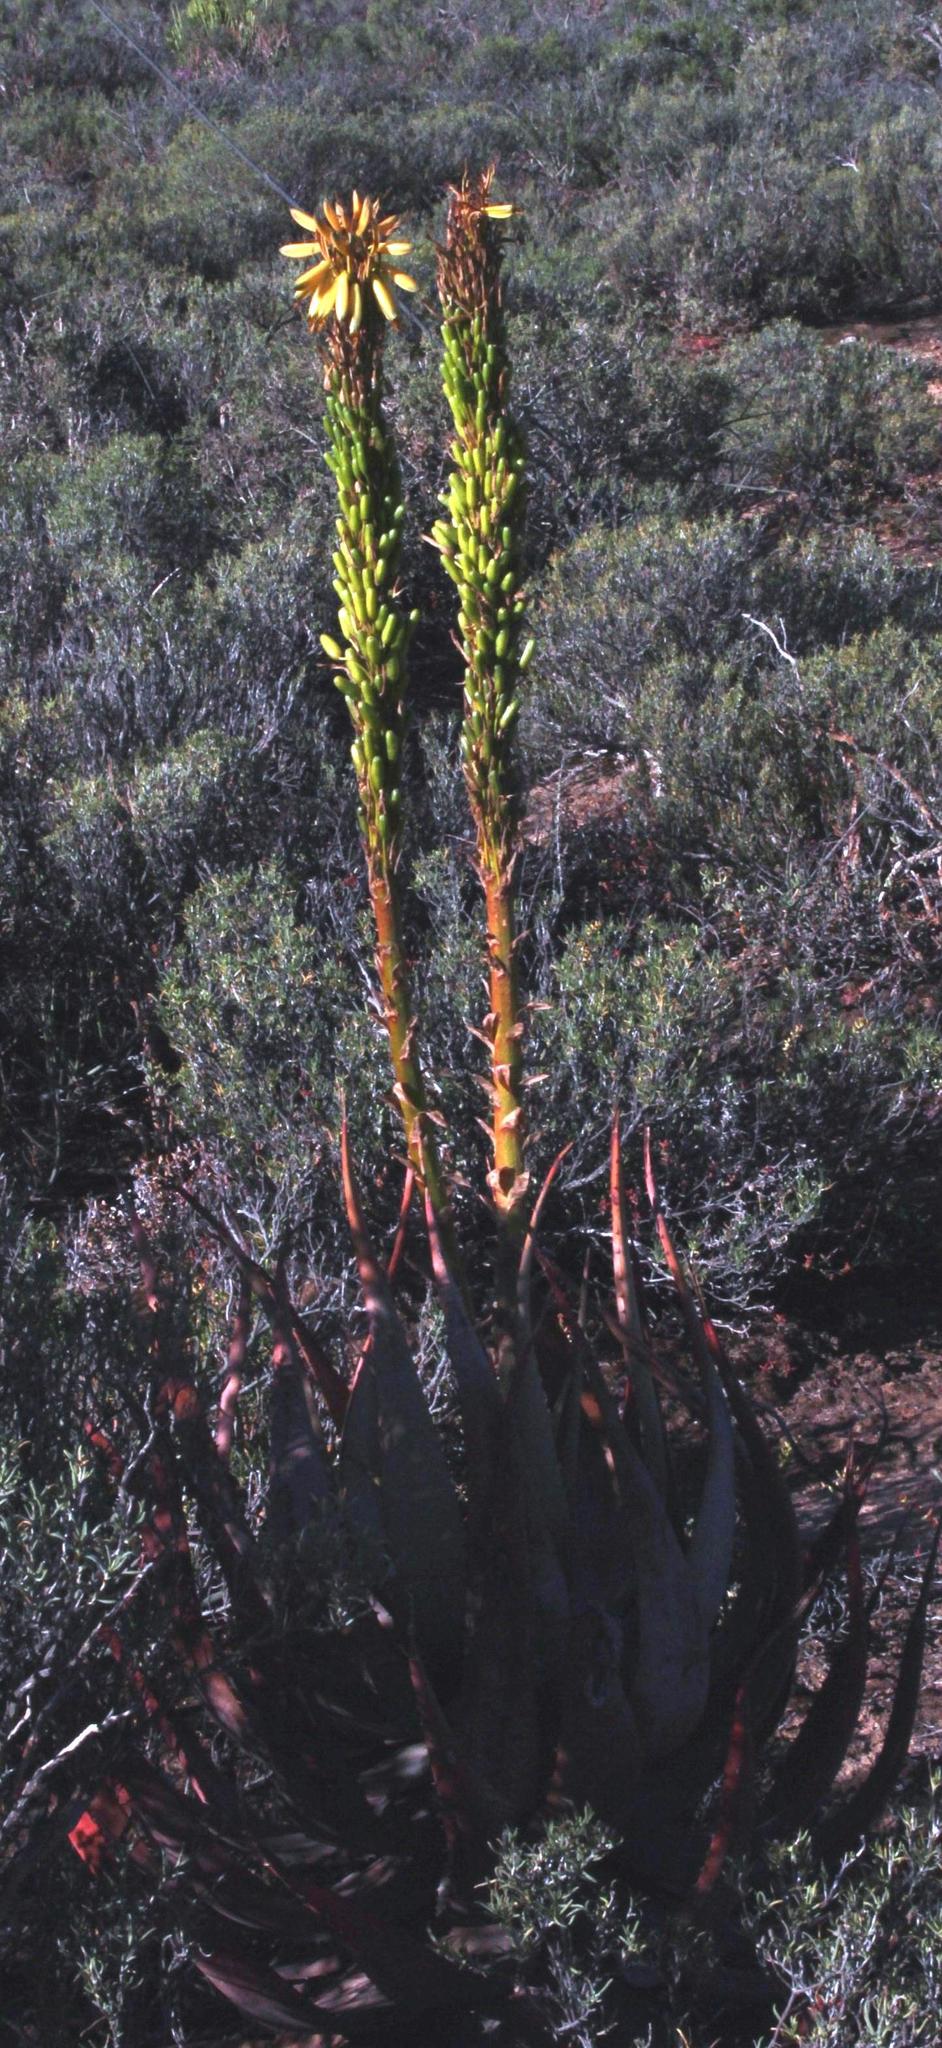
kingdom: Plantae
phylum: Tracheophyta
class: Liliopsida
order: Asparagales
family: Asphodelaceae
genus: Aloe
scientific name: Aloe microstigma
